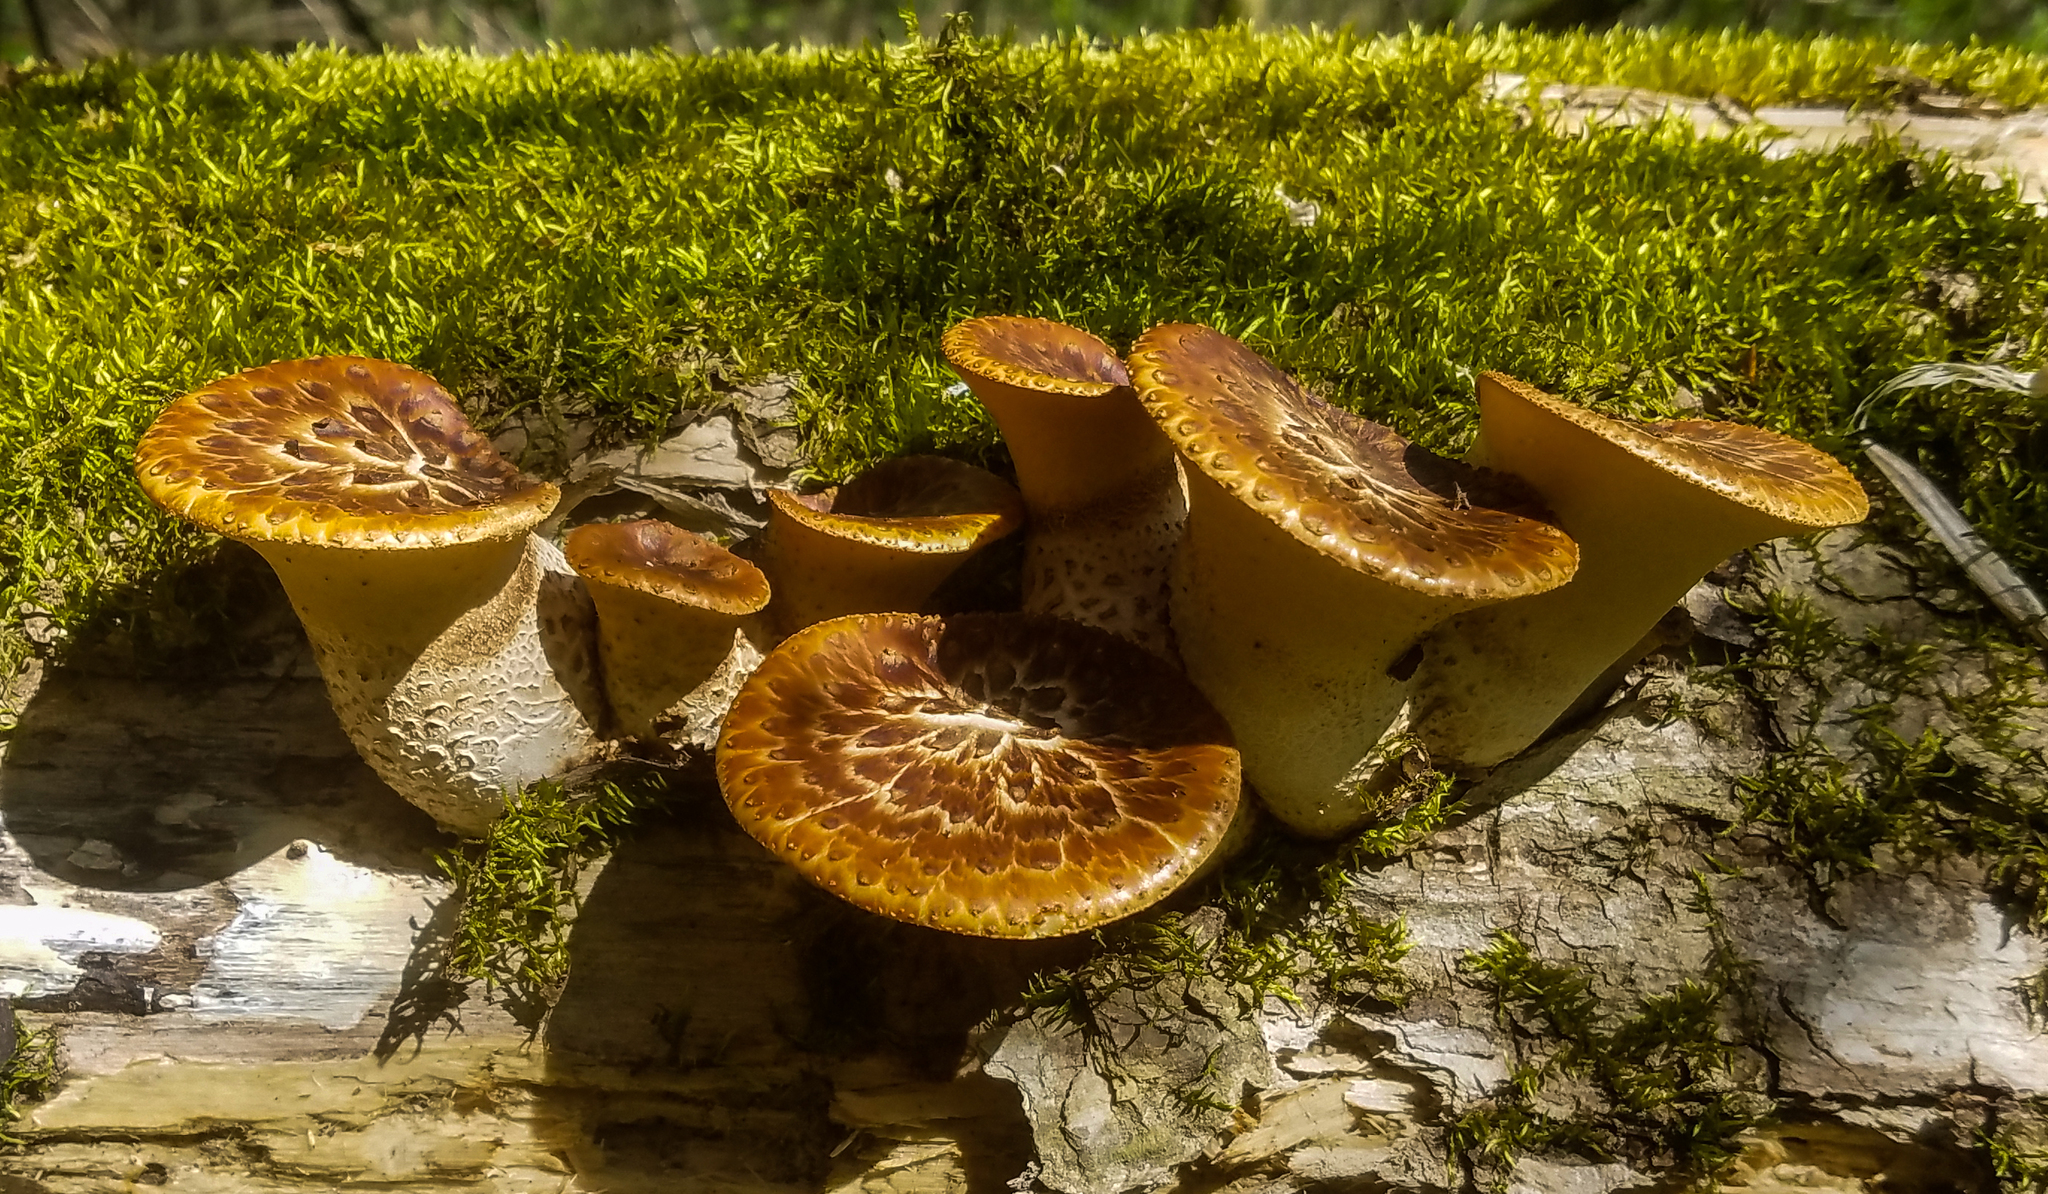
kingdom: Fungi
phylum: Basidiomycota
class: Agaricomycetes
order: Polyporales
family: Polyporaceae
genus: Cerioporus
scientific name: Cerioporus squamosus
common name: Dryad's saddle
